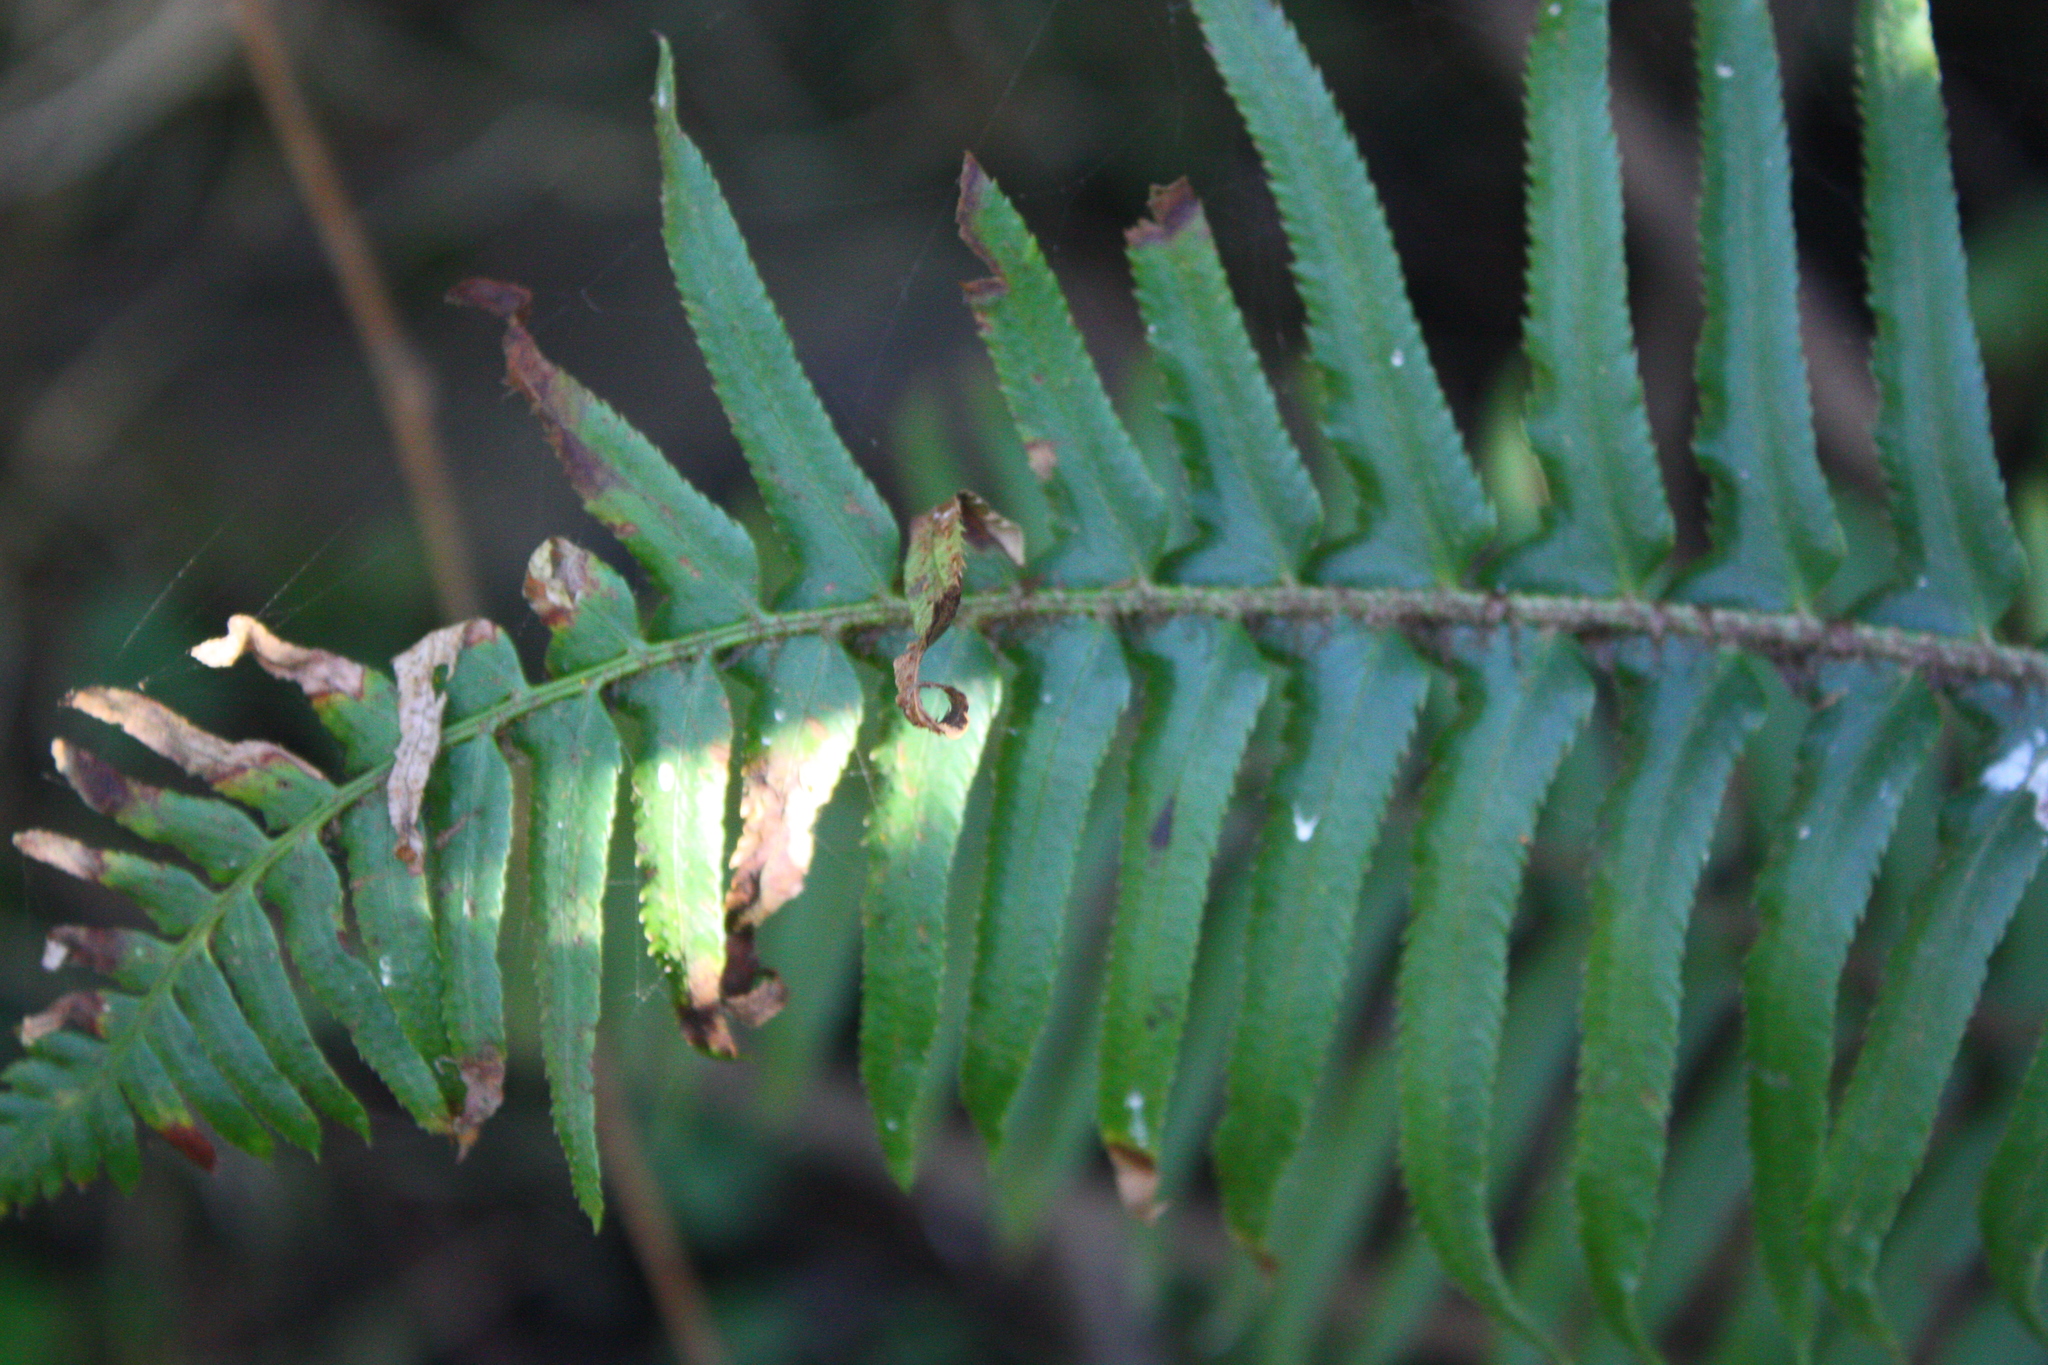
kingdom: Plantae
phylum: Tracheophyta
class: Polypodiopsida
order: Polypodiales
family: Dryopteridaceae
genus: Polystichum
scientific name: Polystichum munitum
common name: Western sword-fern
